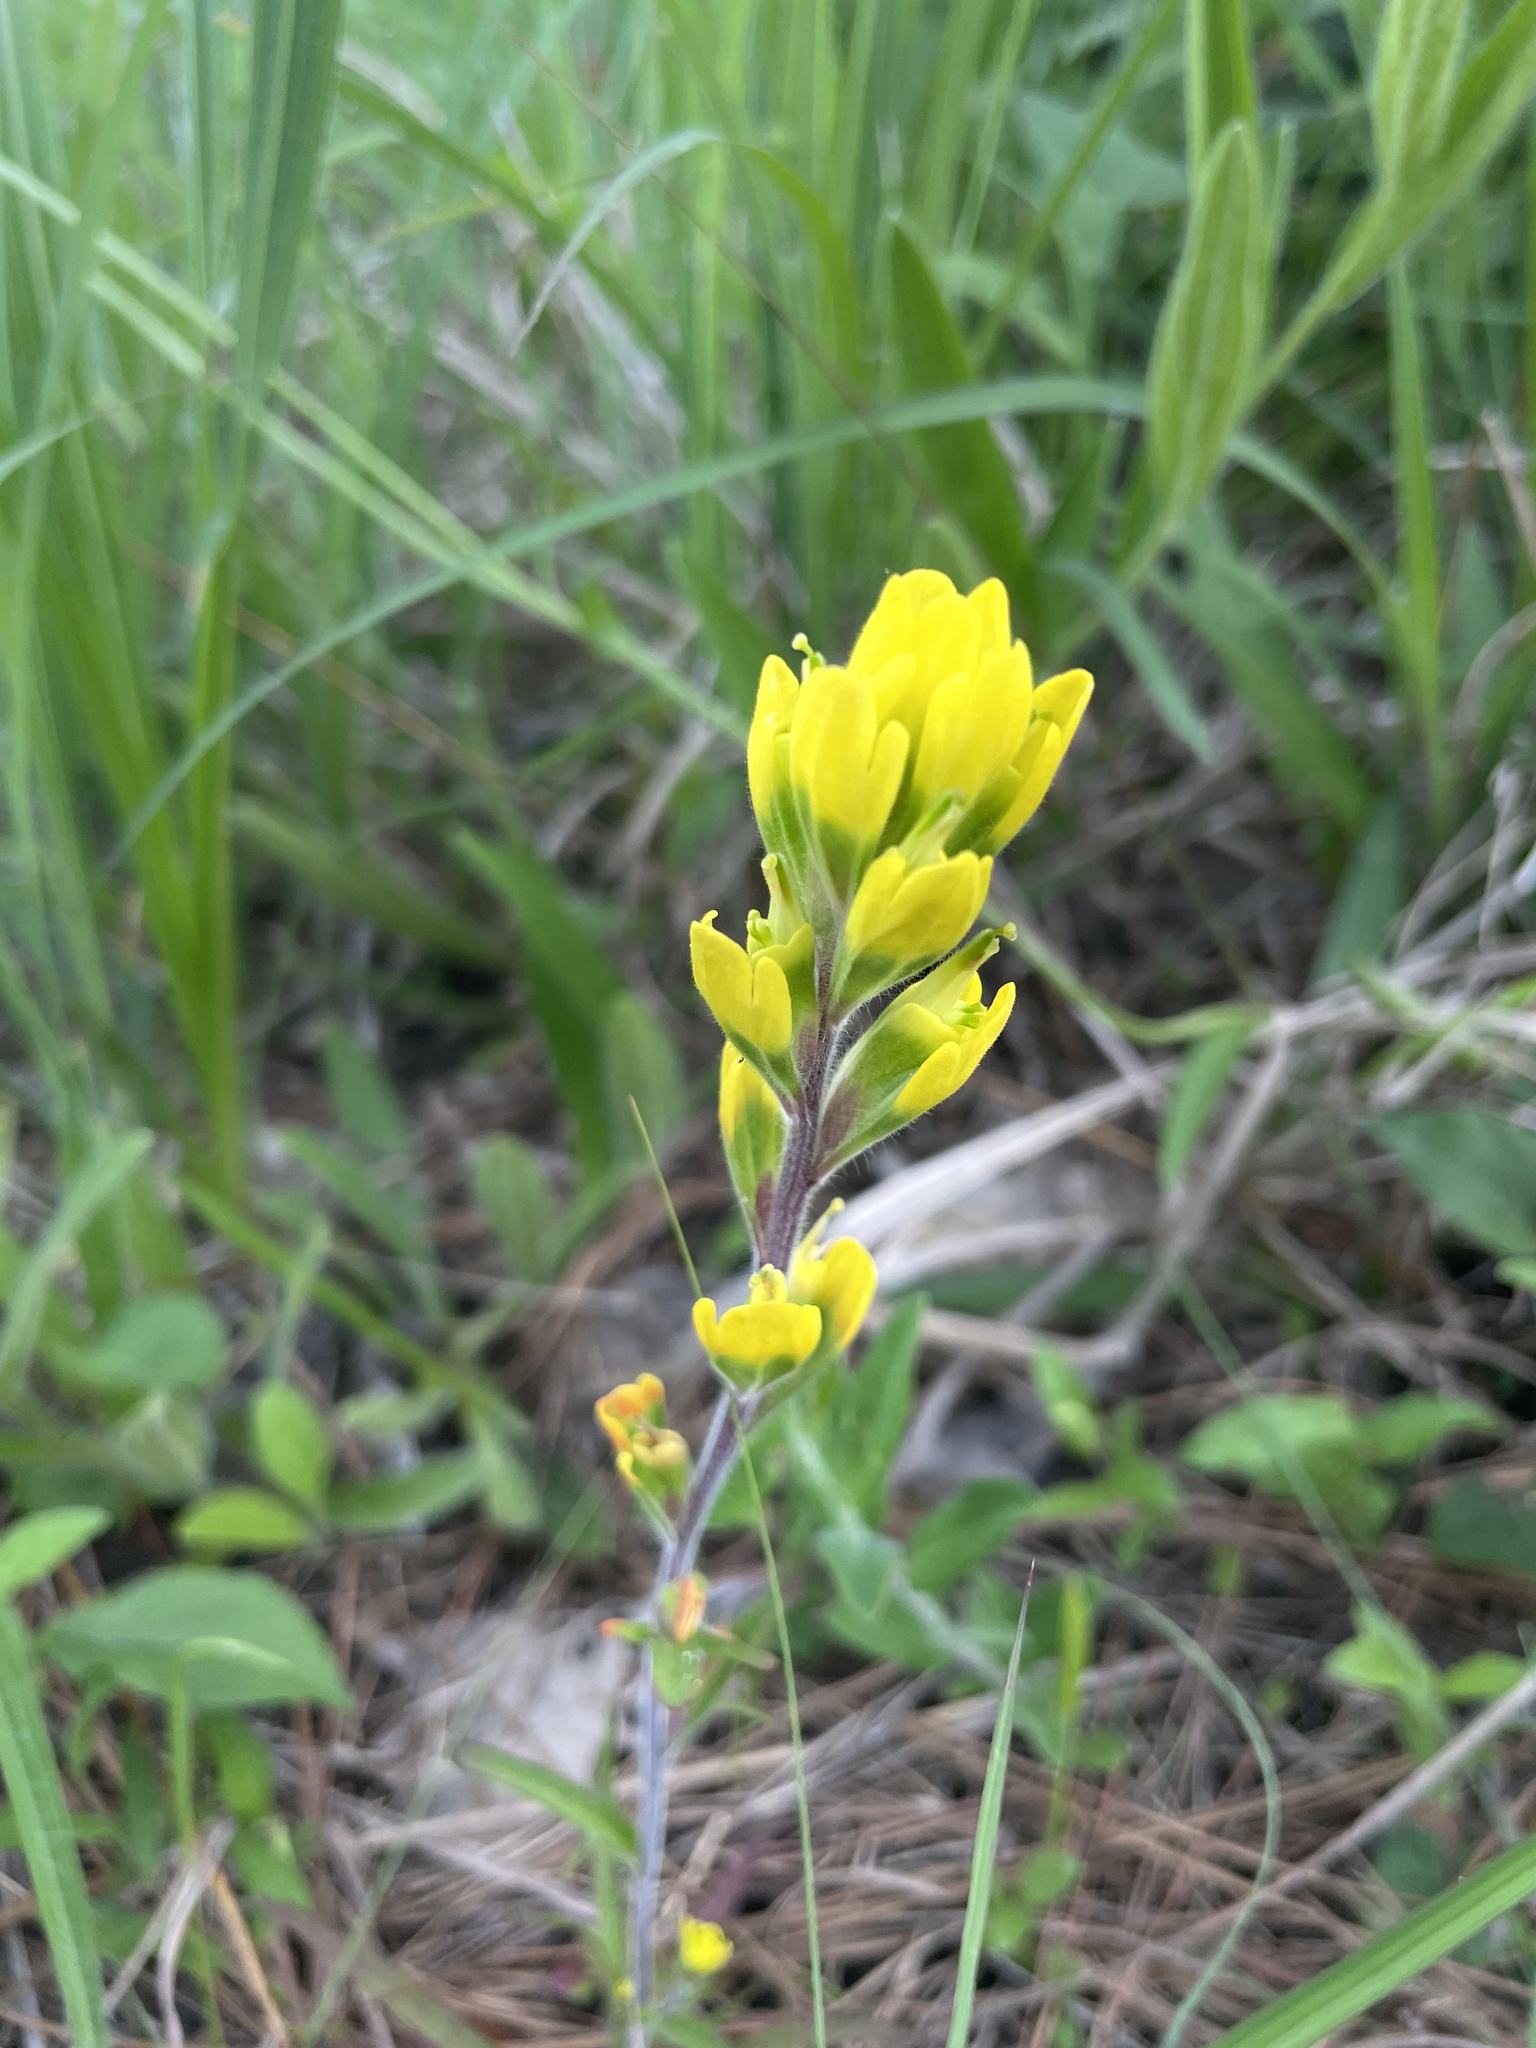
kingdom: Plantae
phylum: Tracheophyta
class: Magnoliopsida
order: Lamiales
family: Orobanchaceae
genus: Castilleja
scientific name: Castilleja kraliana
